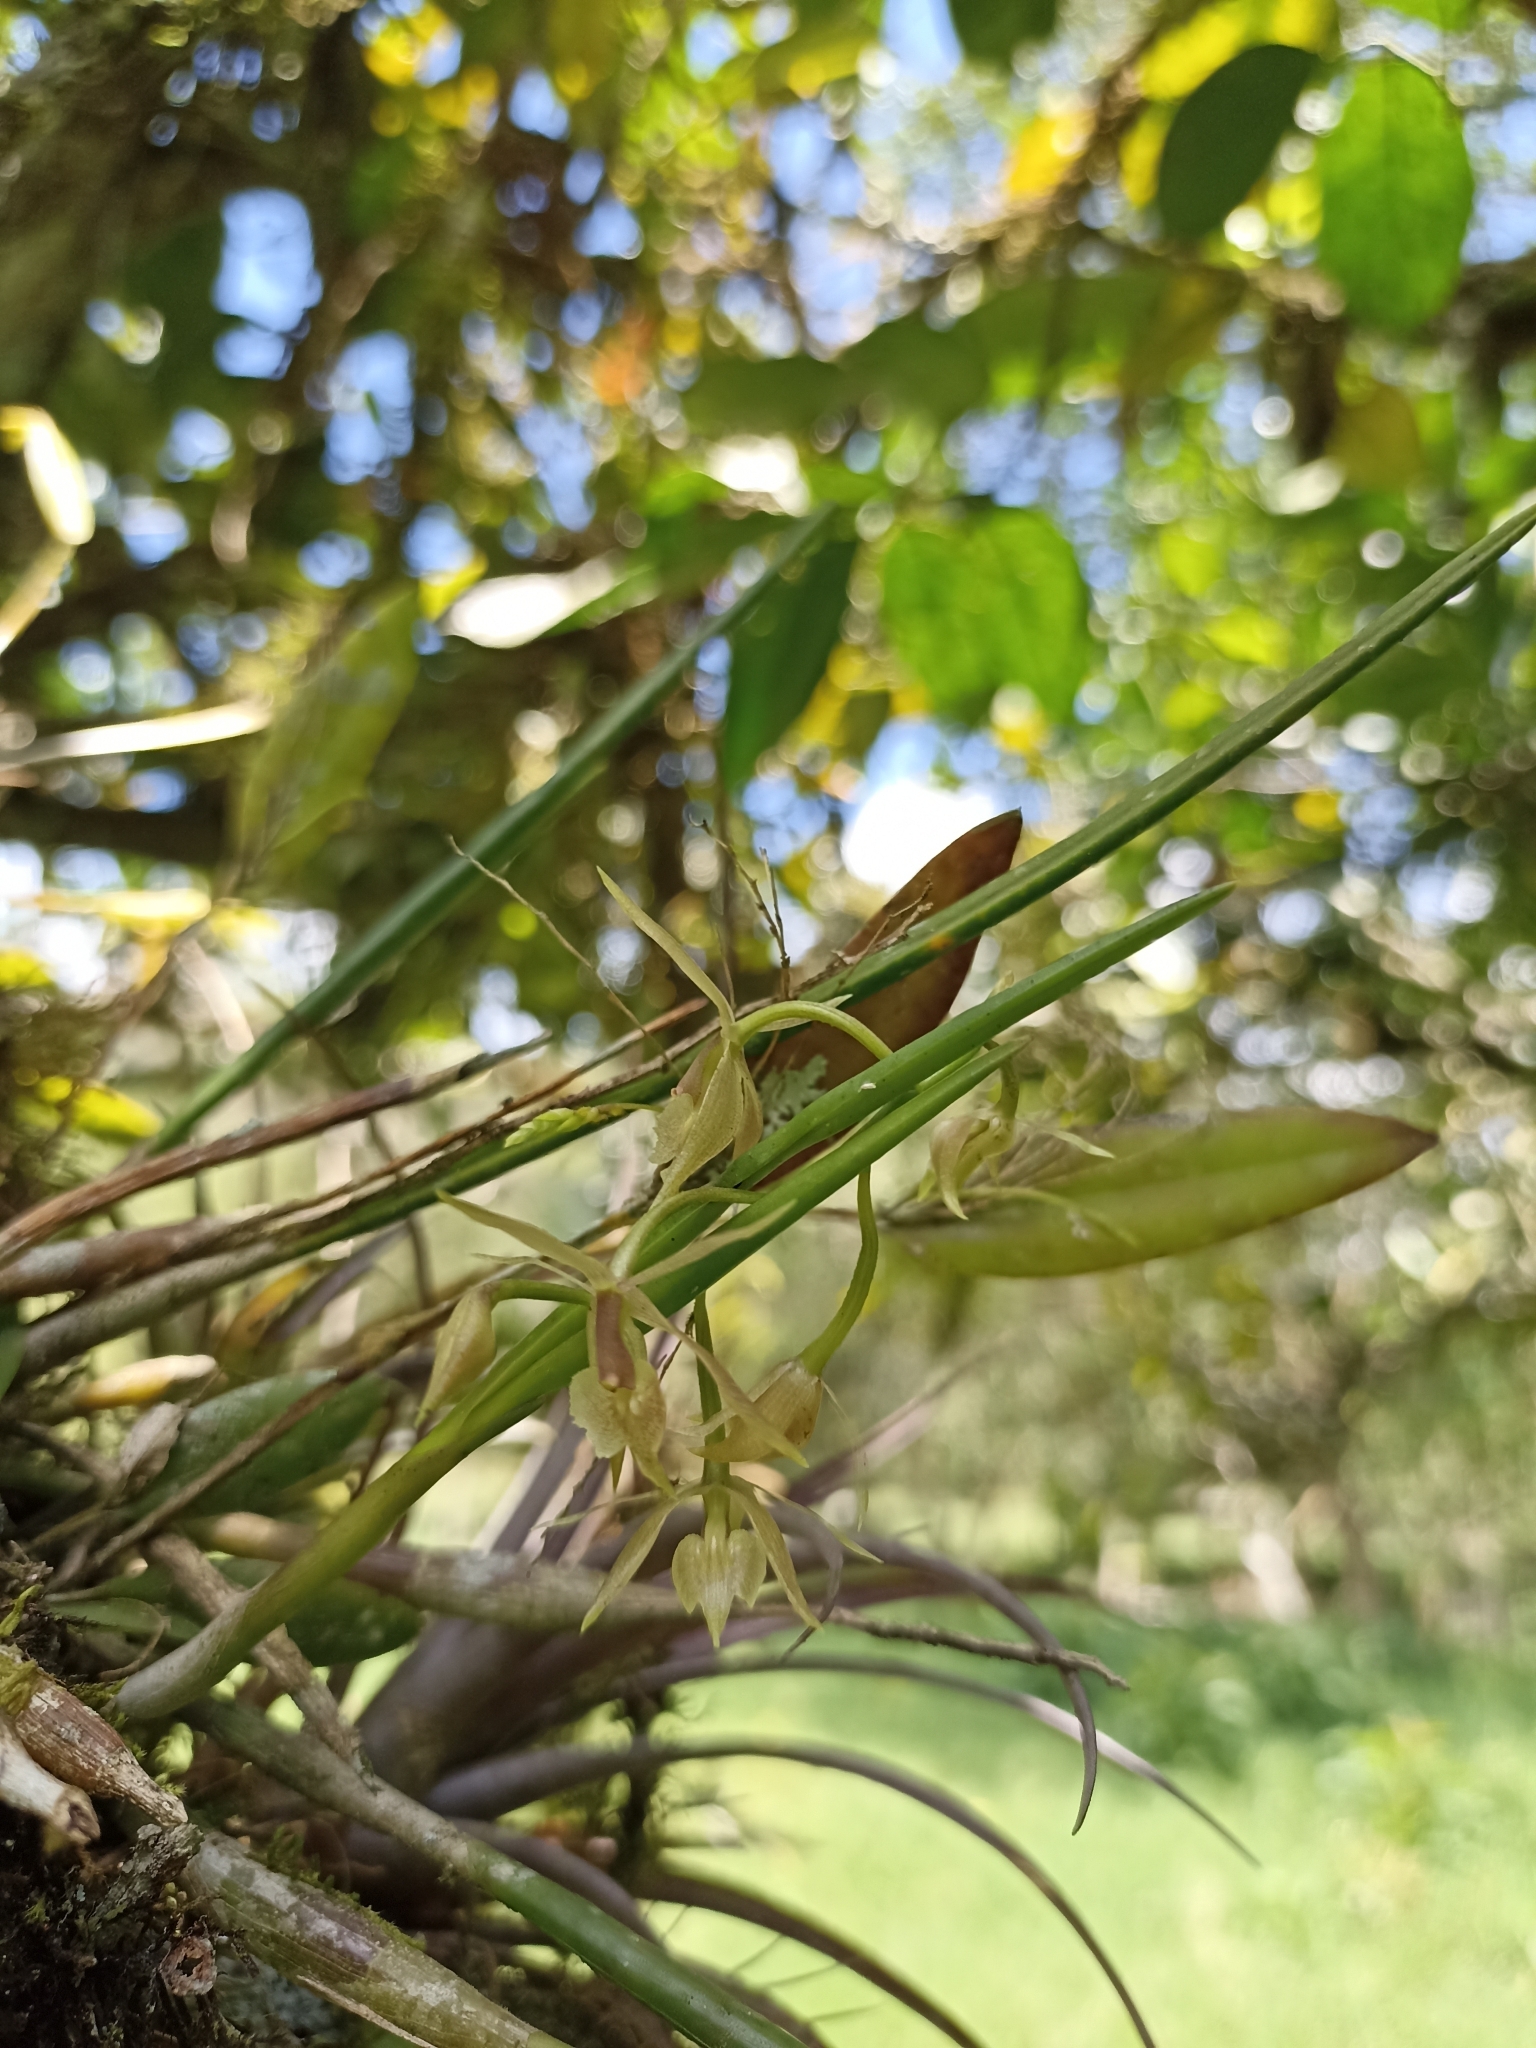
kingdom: Plantae
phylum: Tracheophyta
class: Liliopsida
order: Asparagales
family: Orchidaceae
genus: Epidendrum
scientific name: Epidendrum porquerense
